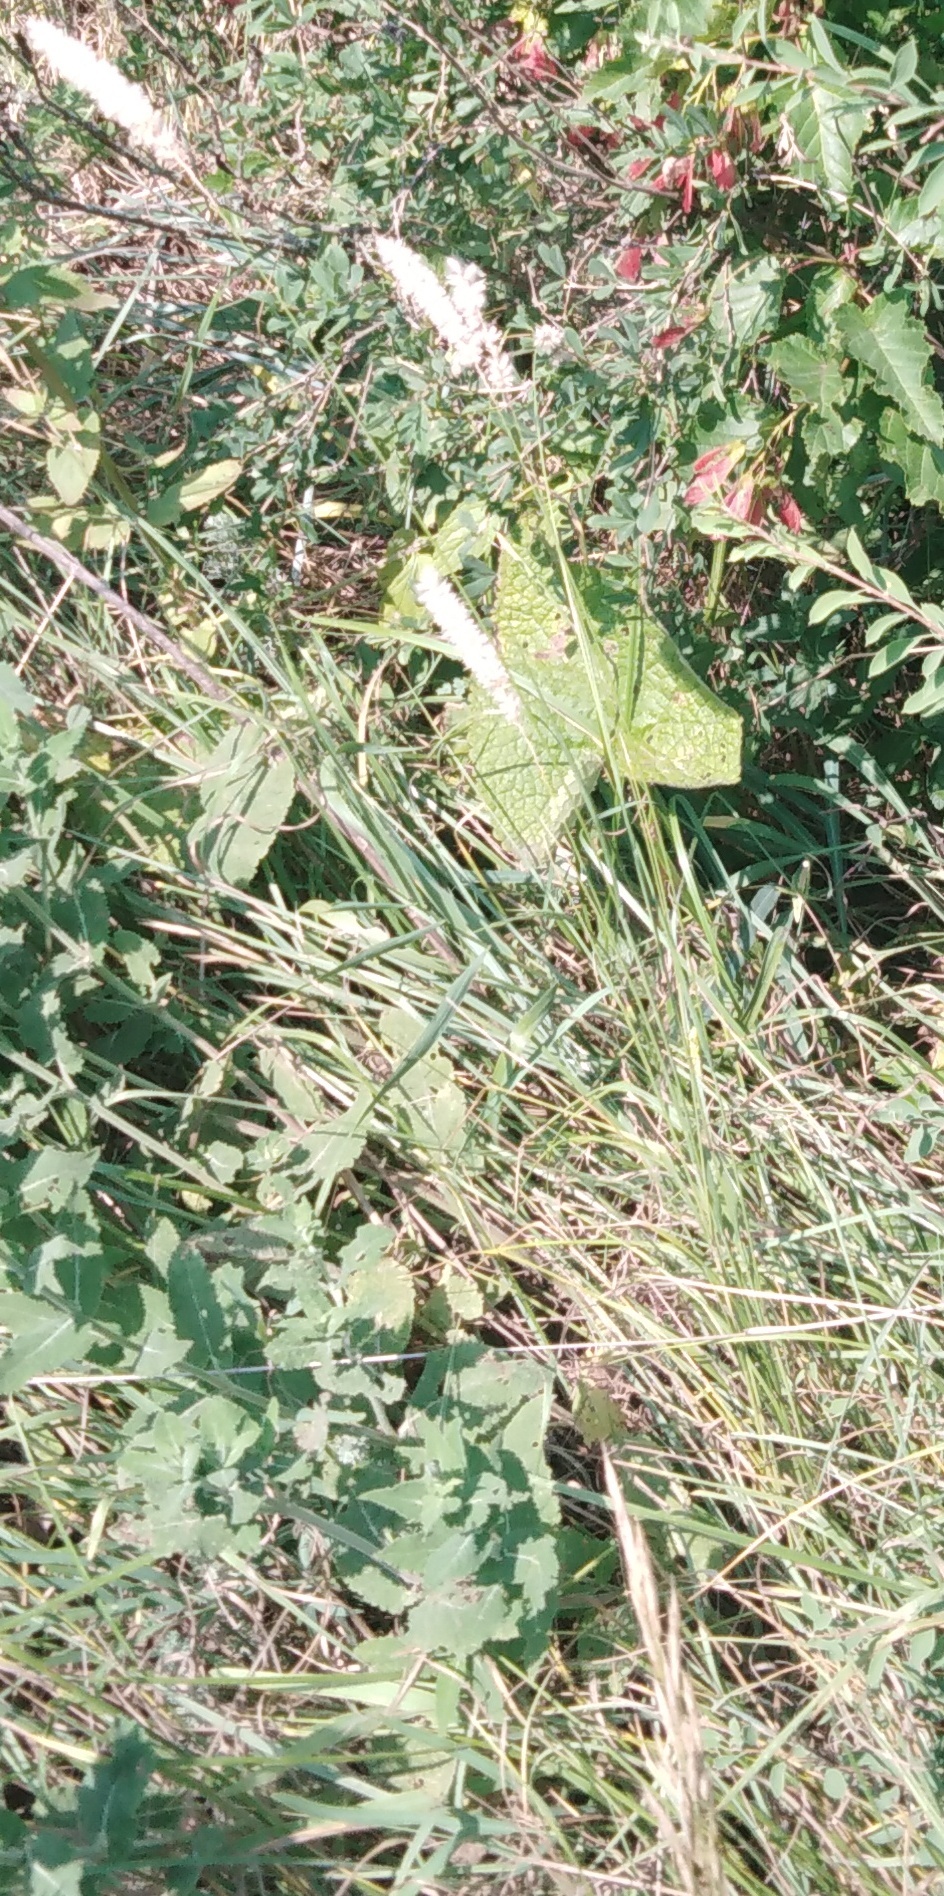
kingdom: Plantae
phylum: Tracheophyta
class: Liliopsida
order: Poales
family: Poaceae
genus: Melica
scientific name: Melica transsilvanica
